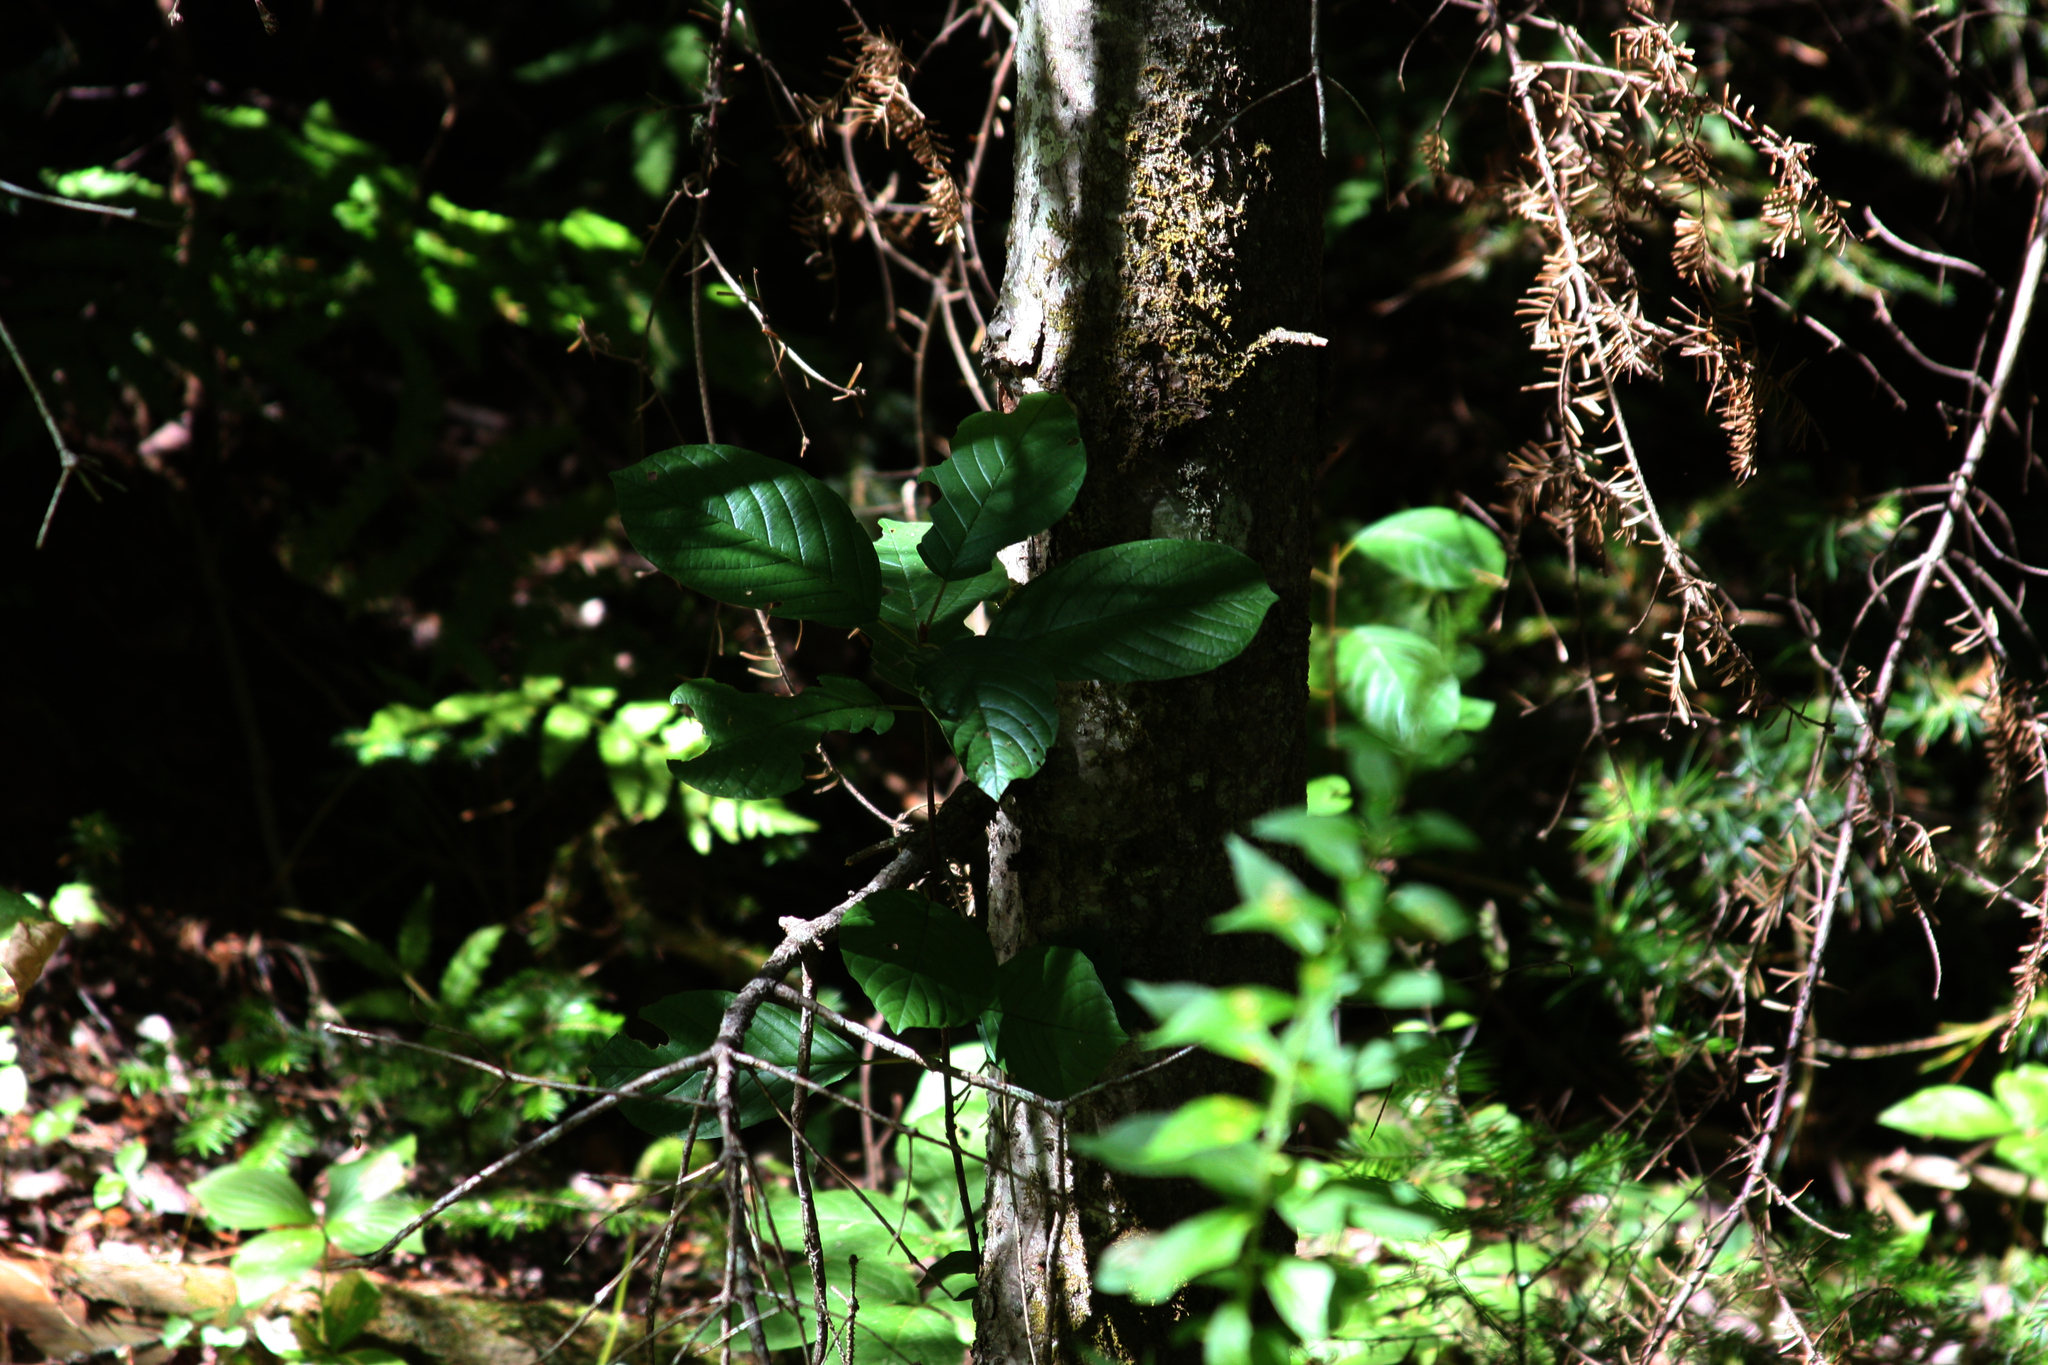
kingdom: Plantae
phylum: Tracheophyta
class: Magnoliopsida
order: Rosales
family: Rhamnaceae
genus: Frangula
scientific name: Frangula alnus
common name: Alder buckthorn
